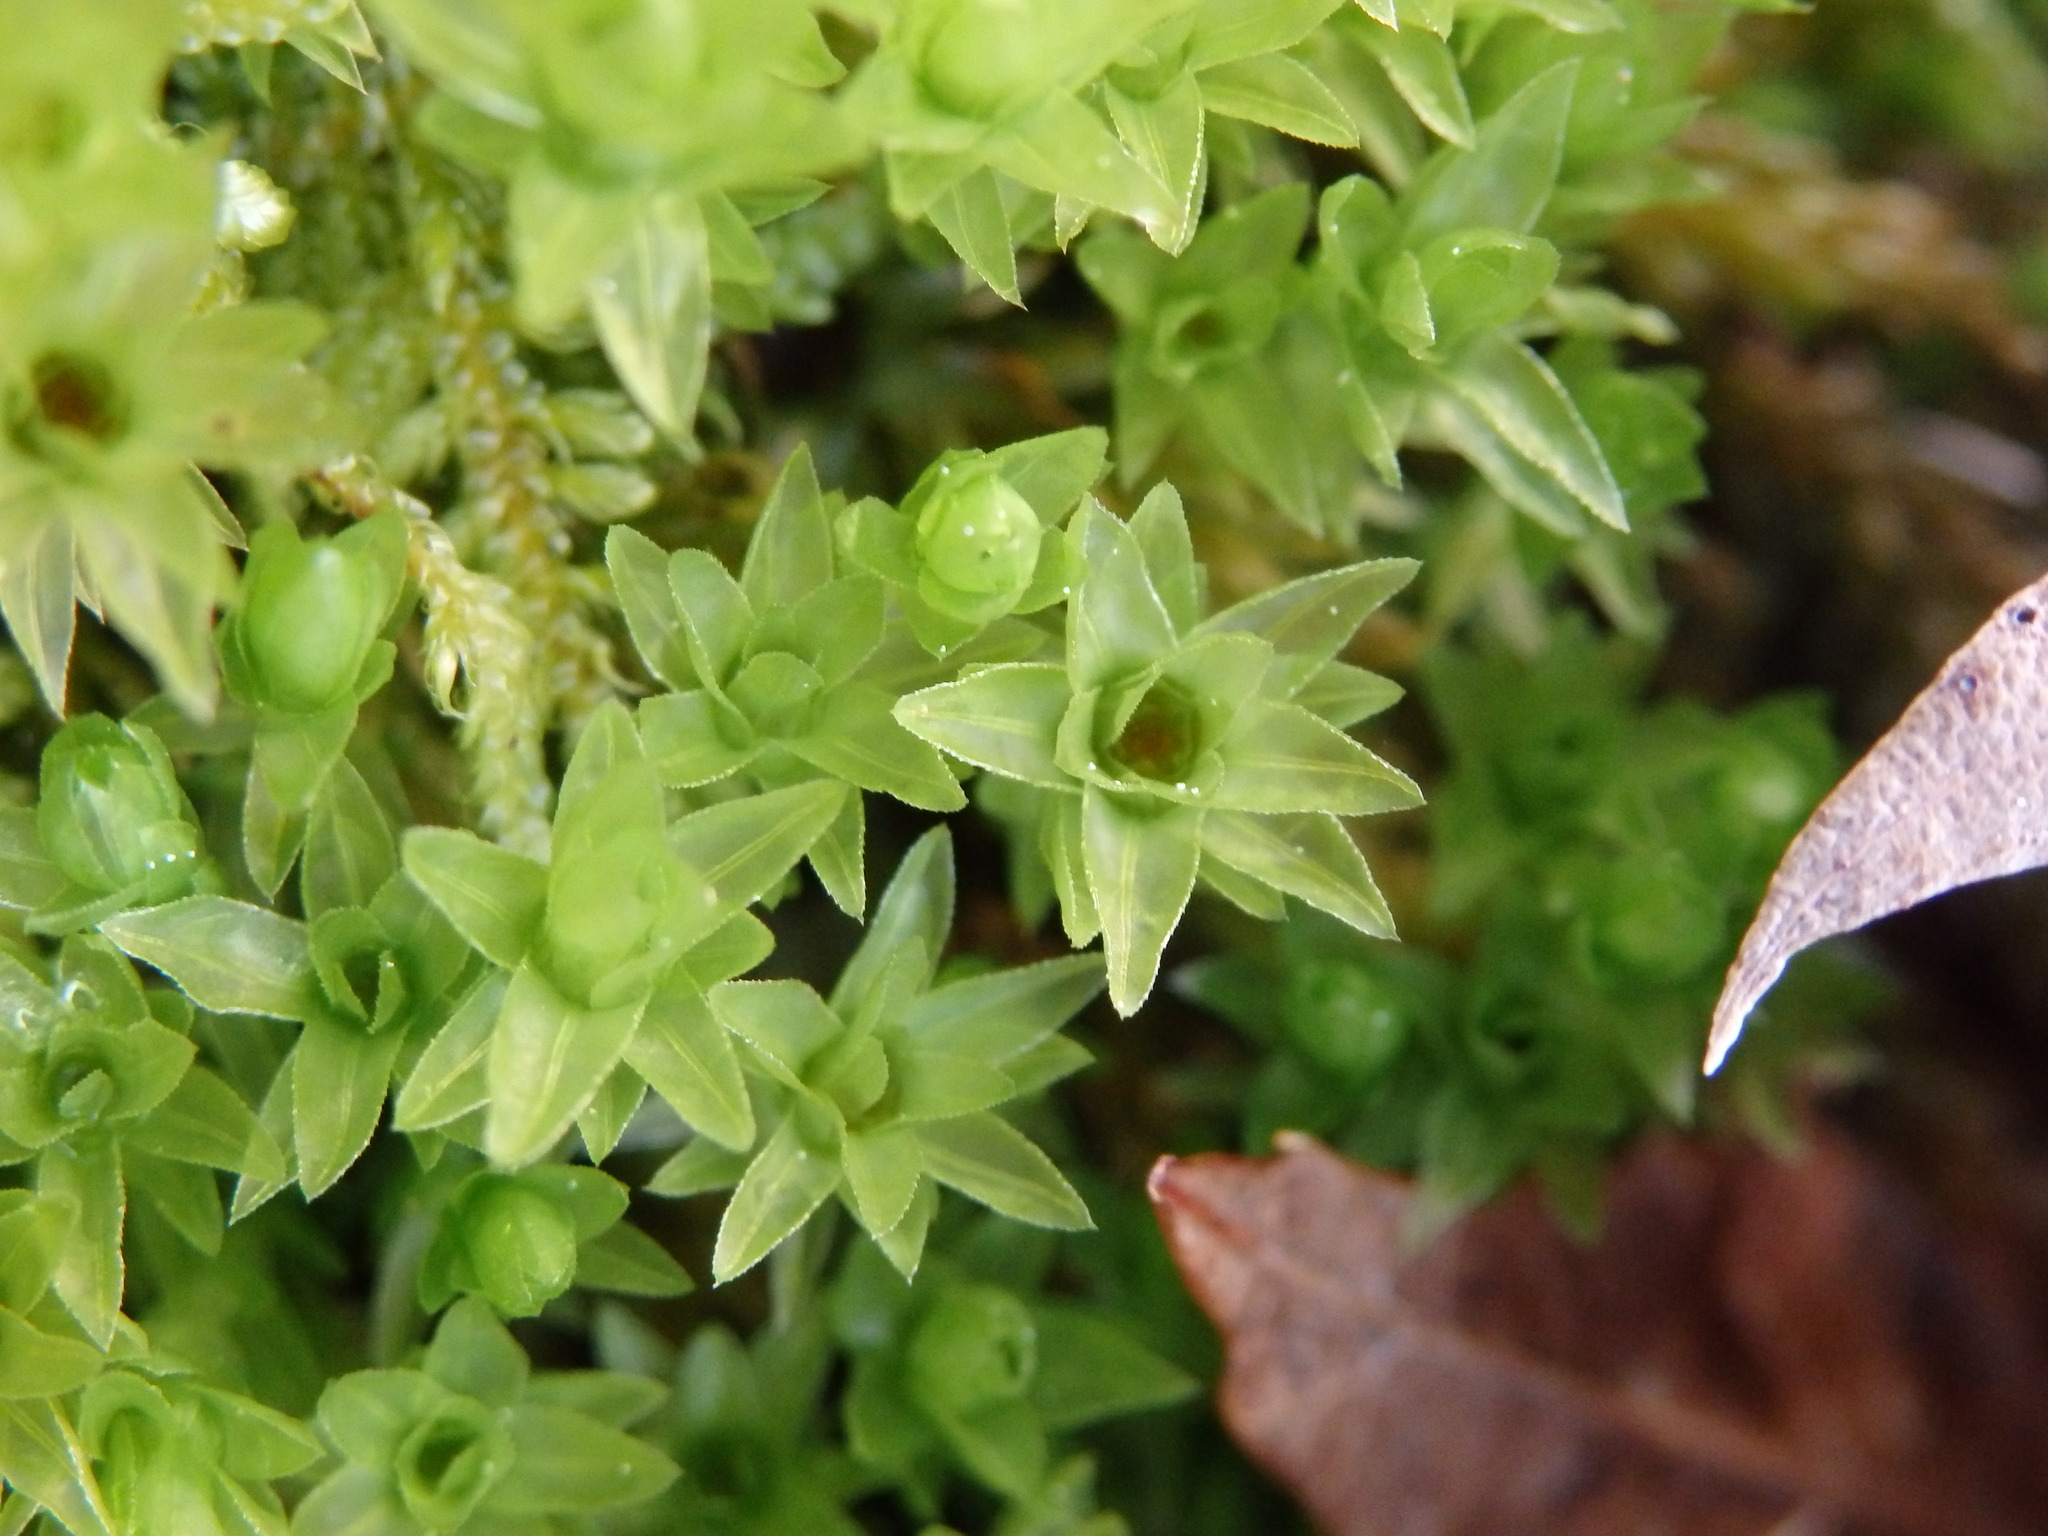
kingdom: Plantae
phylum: Bryophyta
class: Bryopsida
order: Bryales
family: Mniaceae
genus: Mnium
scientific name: Mnium hornum
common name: Swan's-neck leafy moss
